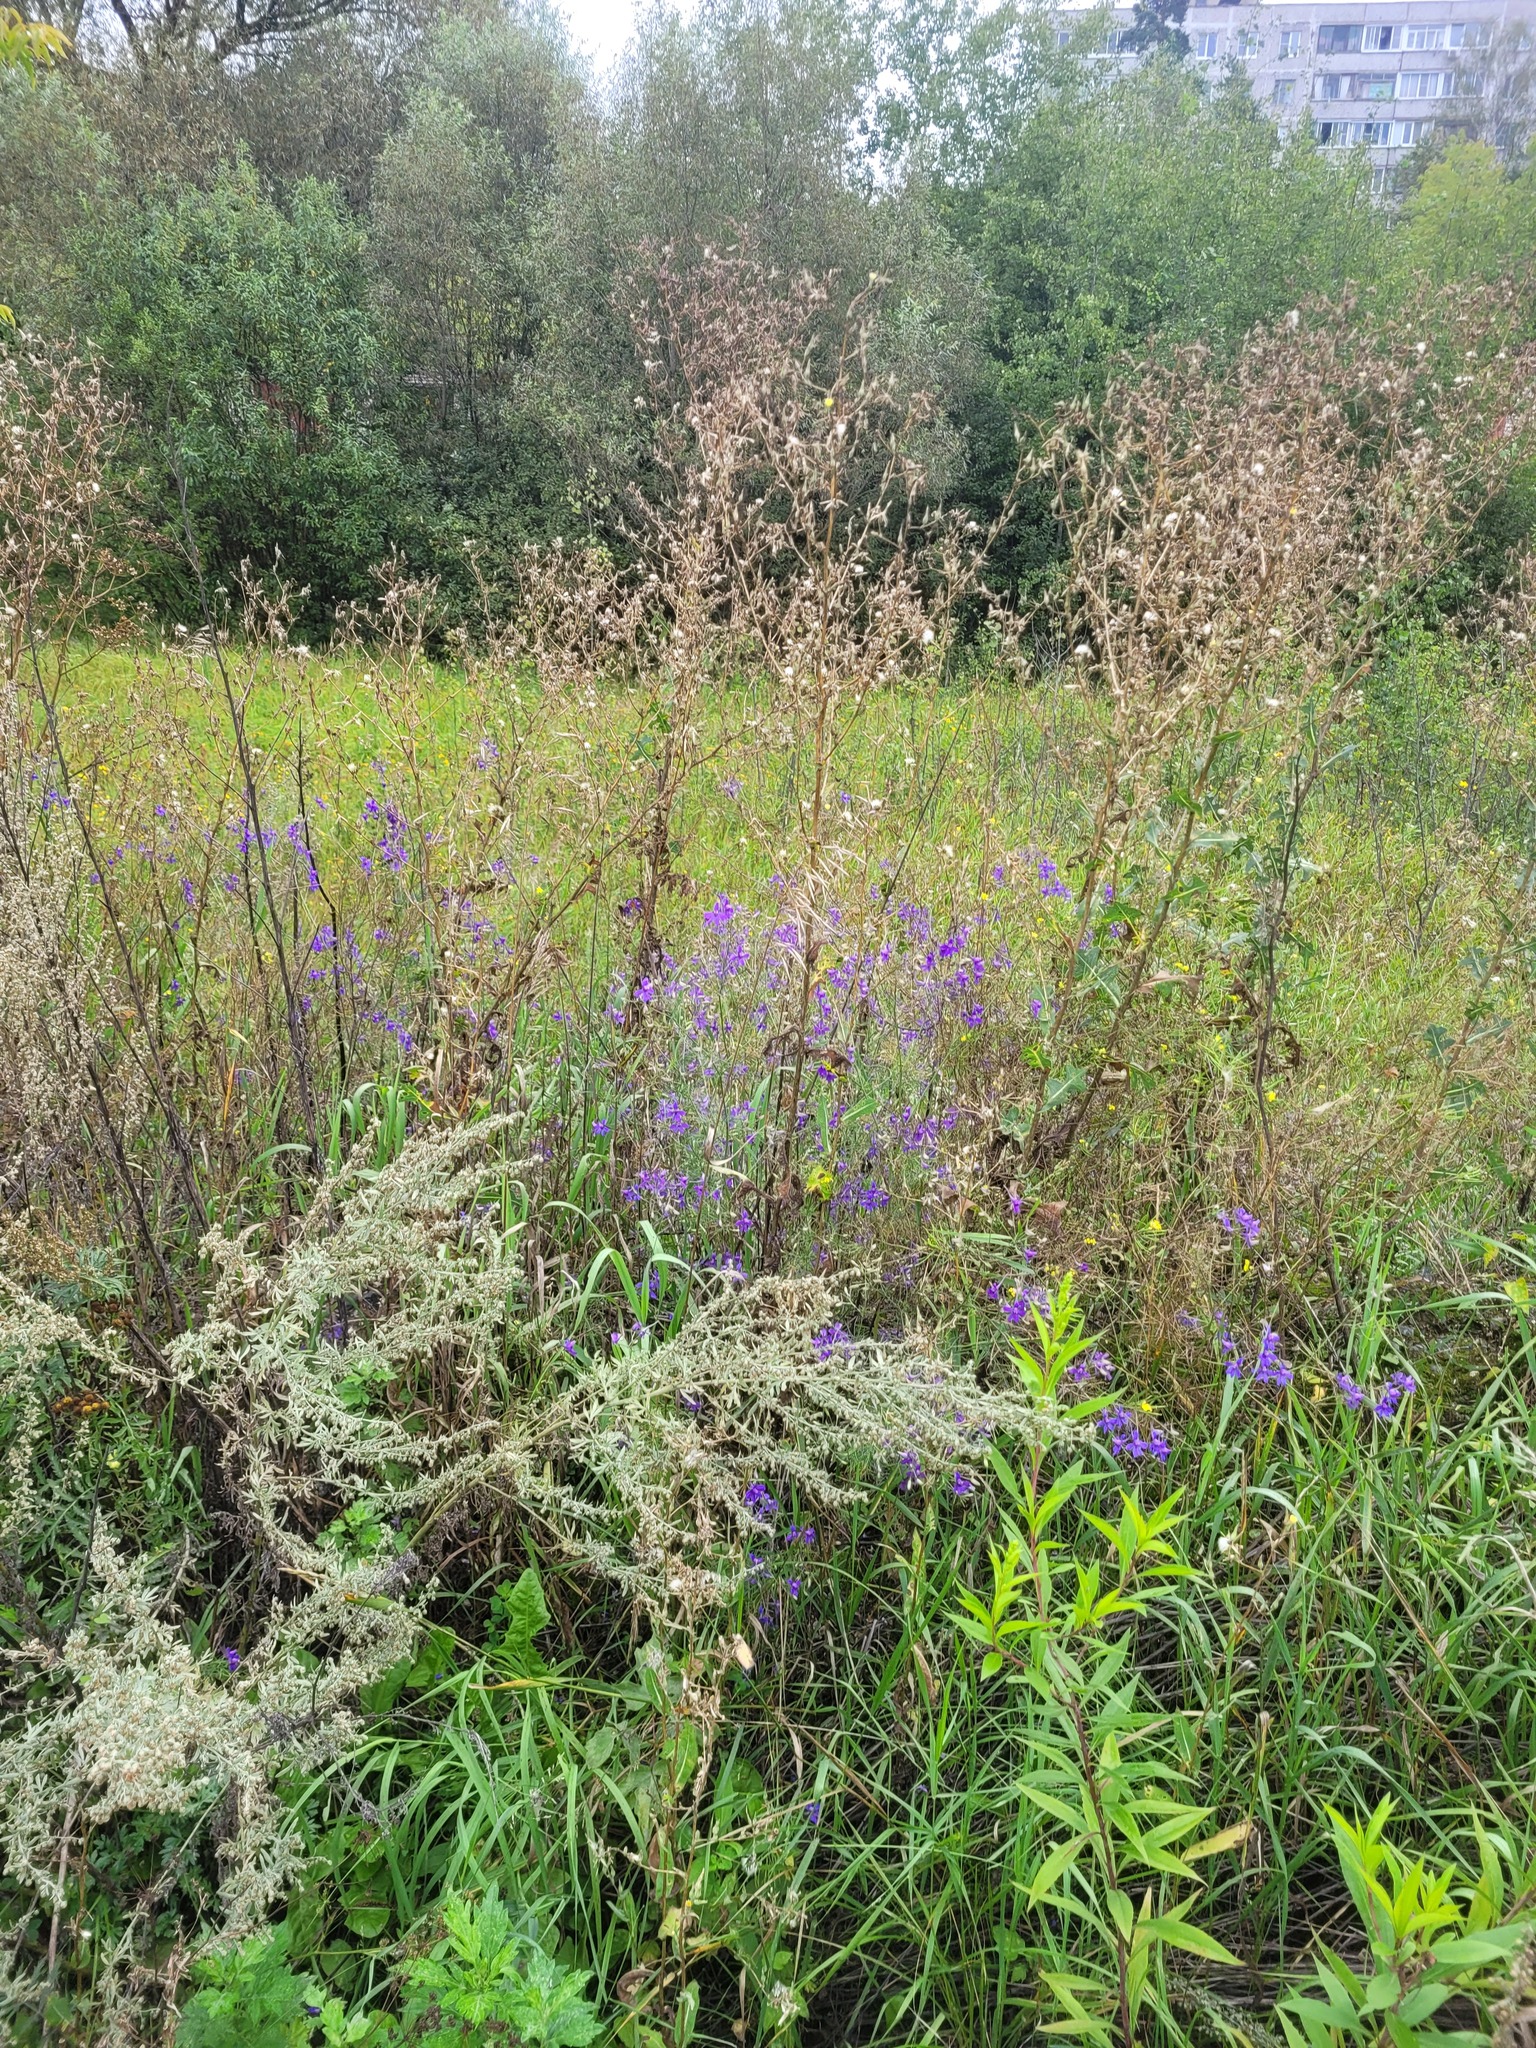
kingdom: Plantae
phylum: Tracheophyta
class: Magnoliopsida
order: Ranunculales
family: Ranunculaceae
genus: Delphinium
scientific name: Delphinium consolida
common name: Branching larkspur
